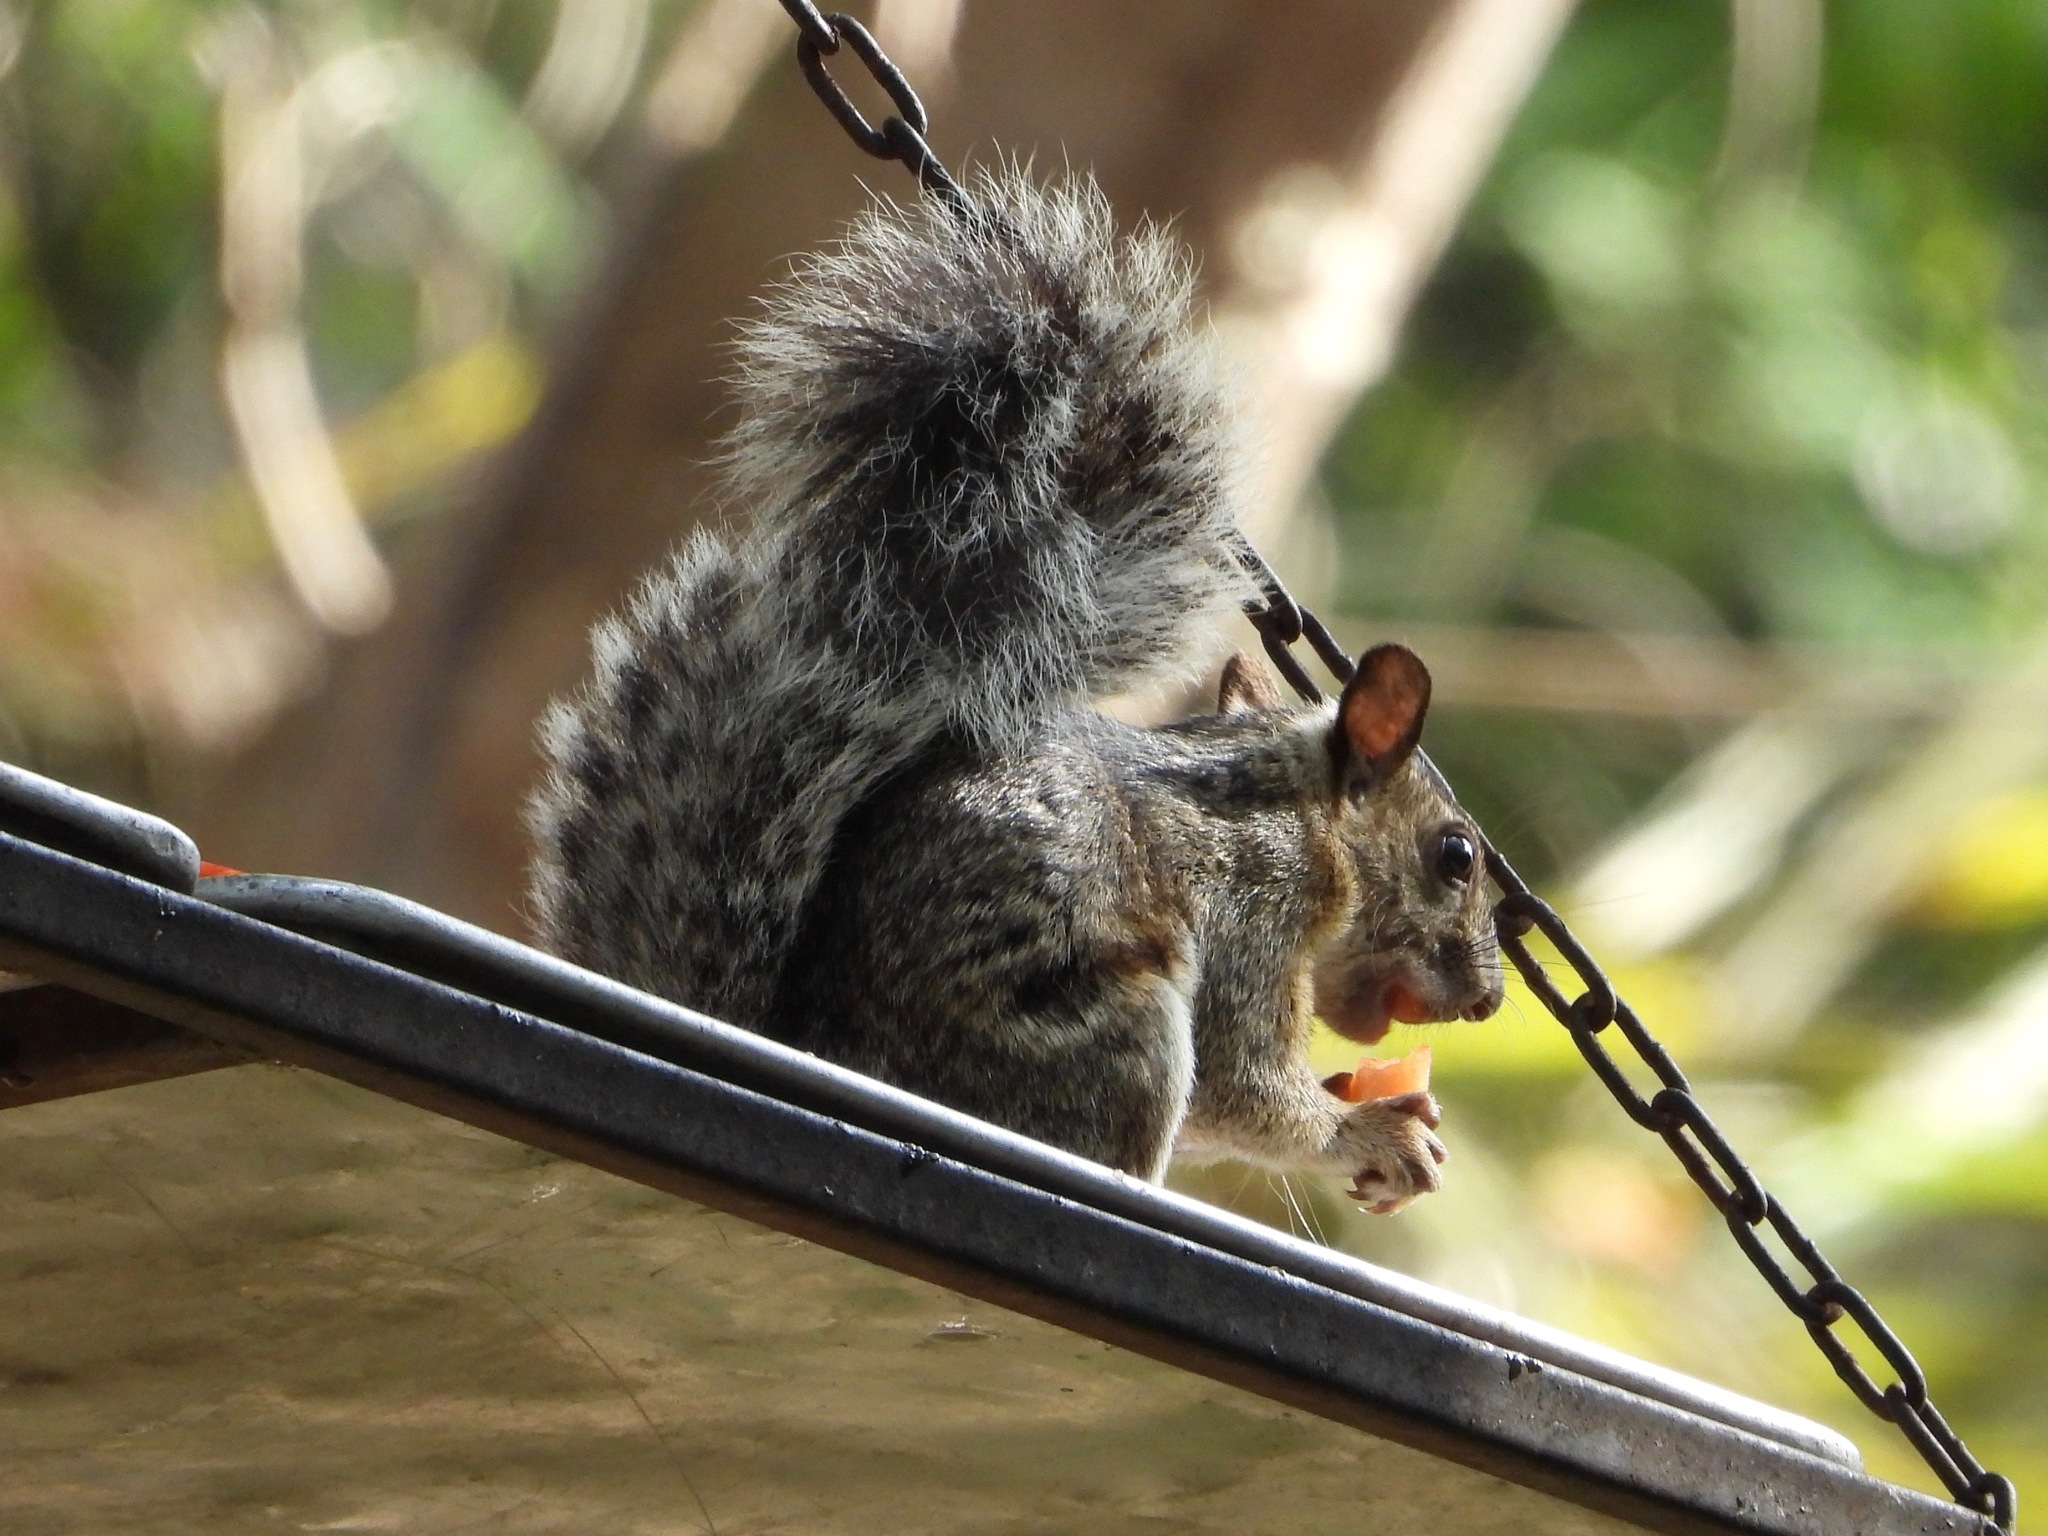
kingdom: Animalia
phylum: Chordata
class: Mammalia
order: Rodentia
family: Sciuridae
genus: Sciurus
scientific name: Sciurus variegatoides
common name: Variegated squirrel
